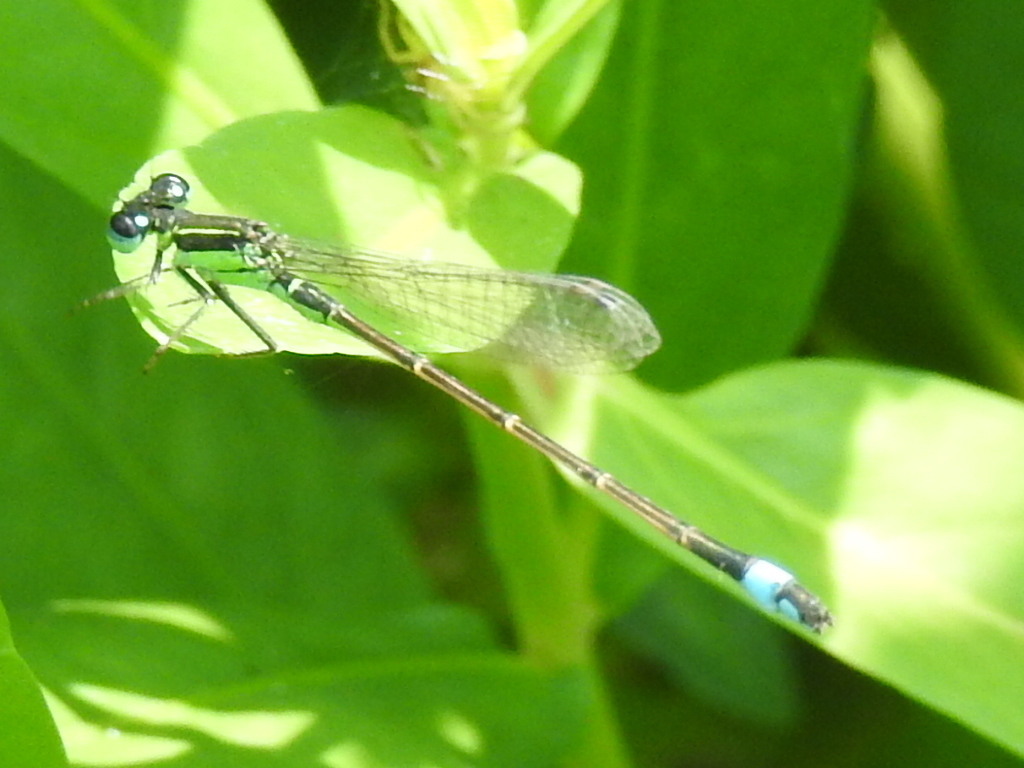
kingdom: Animalia
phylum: Arthropoda
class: Insecta
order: Odonata
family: Coenagrionidae
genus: Ischnura
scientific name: Ischnura ramburii
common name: Rambur's forktail
